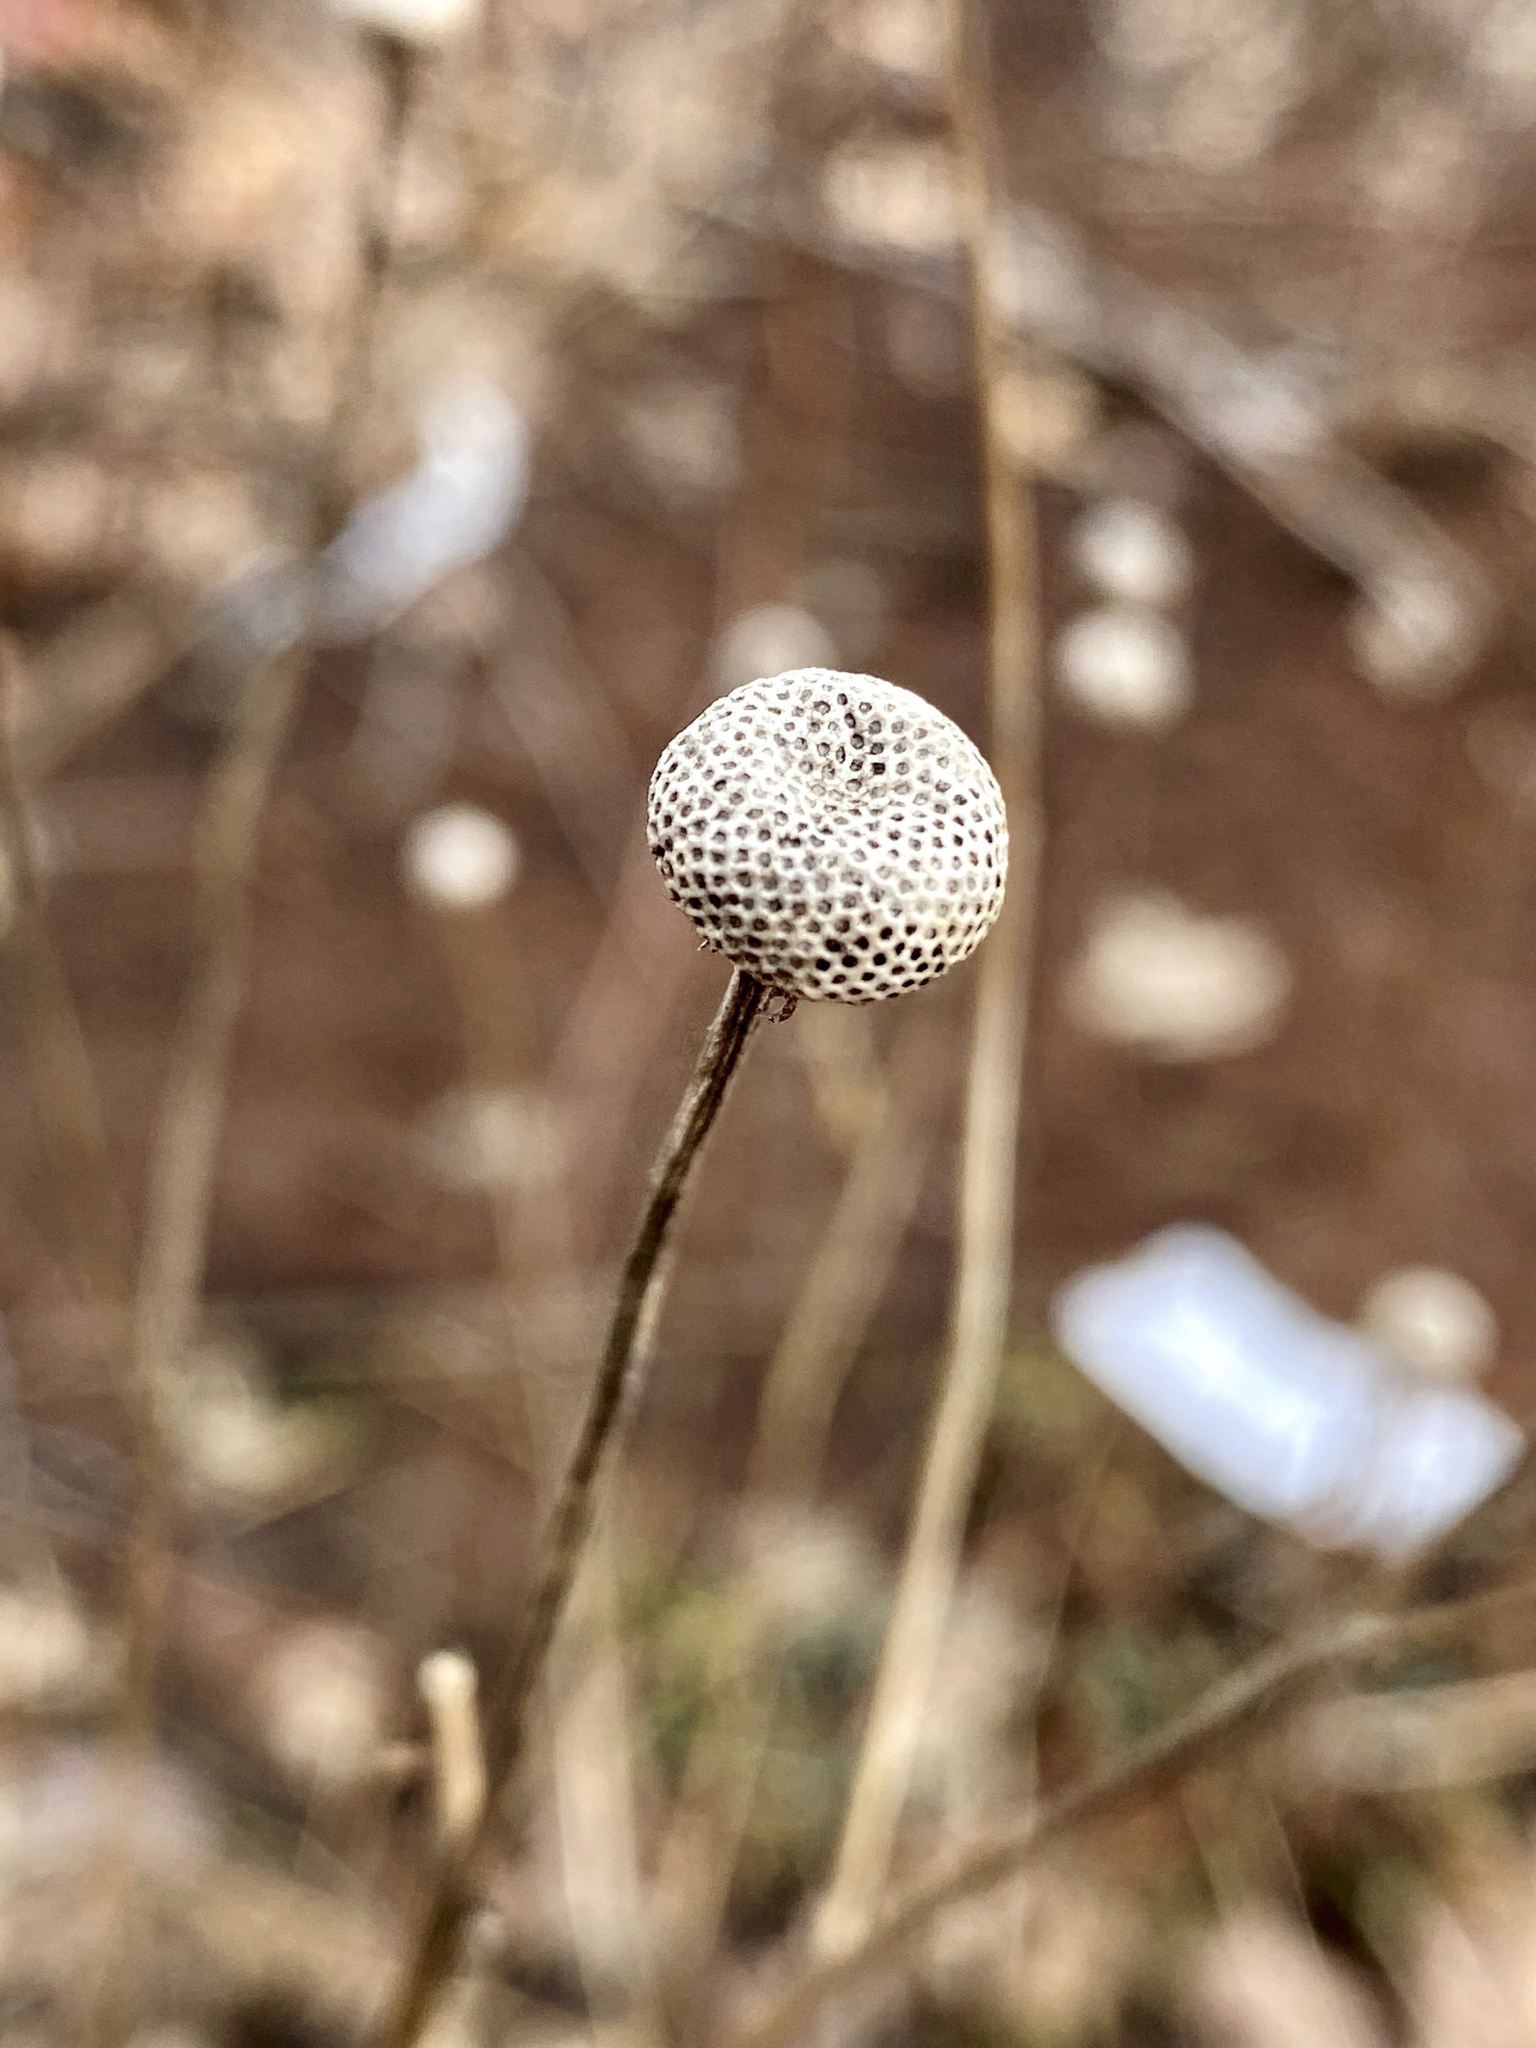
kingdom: Plantae
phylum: Tracheophyta
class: Magnoliopsida
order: Asterales
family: Asteraceae
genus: Helenium
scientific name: Helenium autumnale
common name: Sneezeweed
